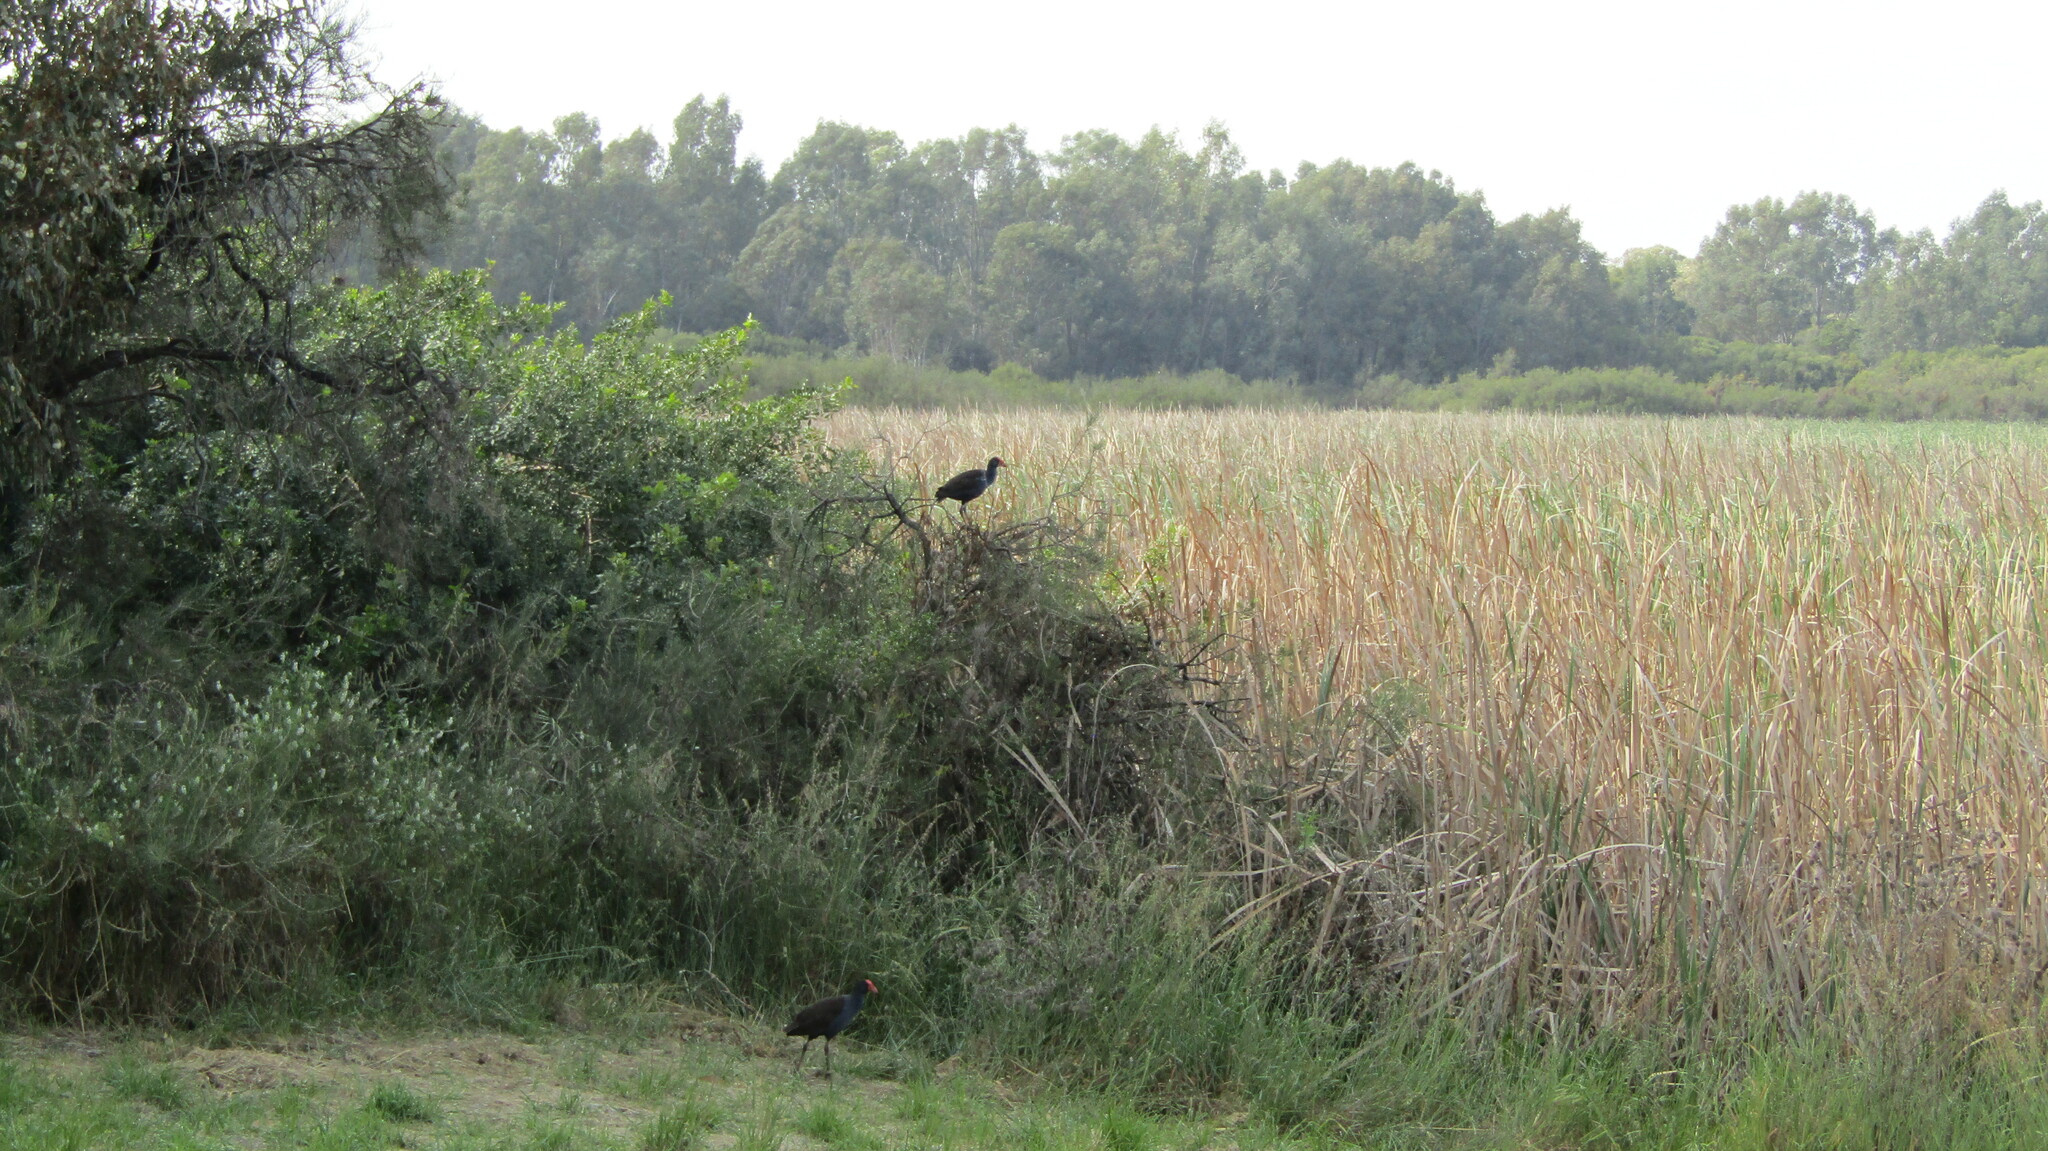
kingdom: Animalia
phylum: Chordata
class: Aves
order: Gruiformes
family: Rallidae
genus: Porphyrio
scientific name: Porphyrio melanotus
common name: Australasian swamphen
